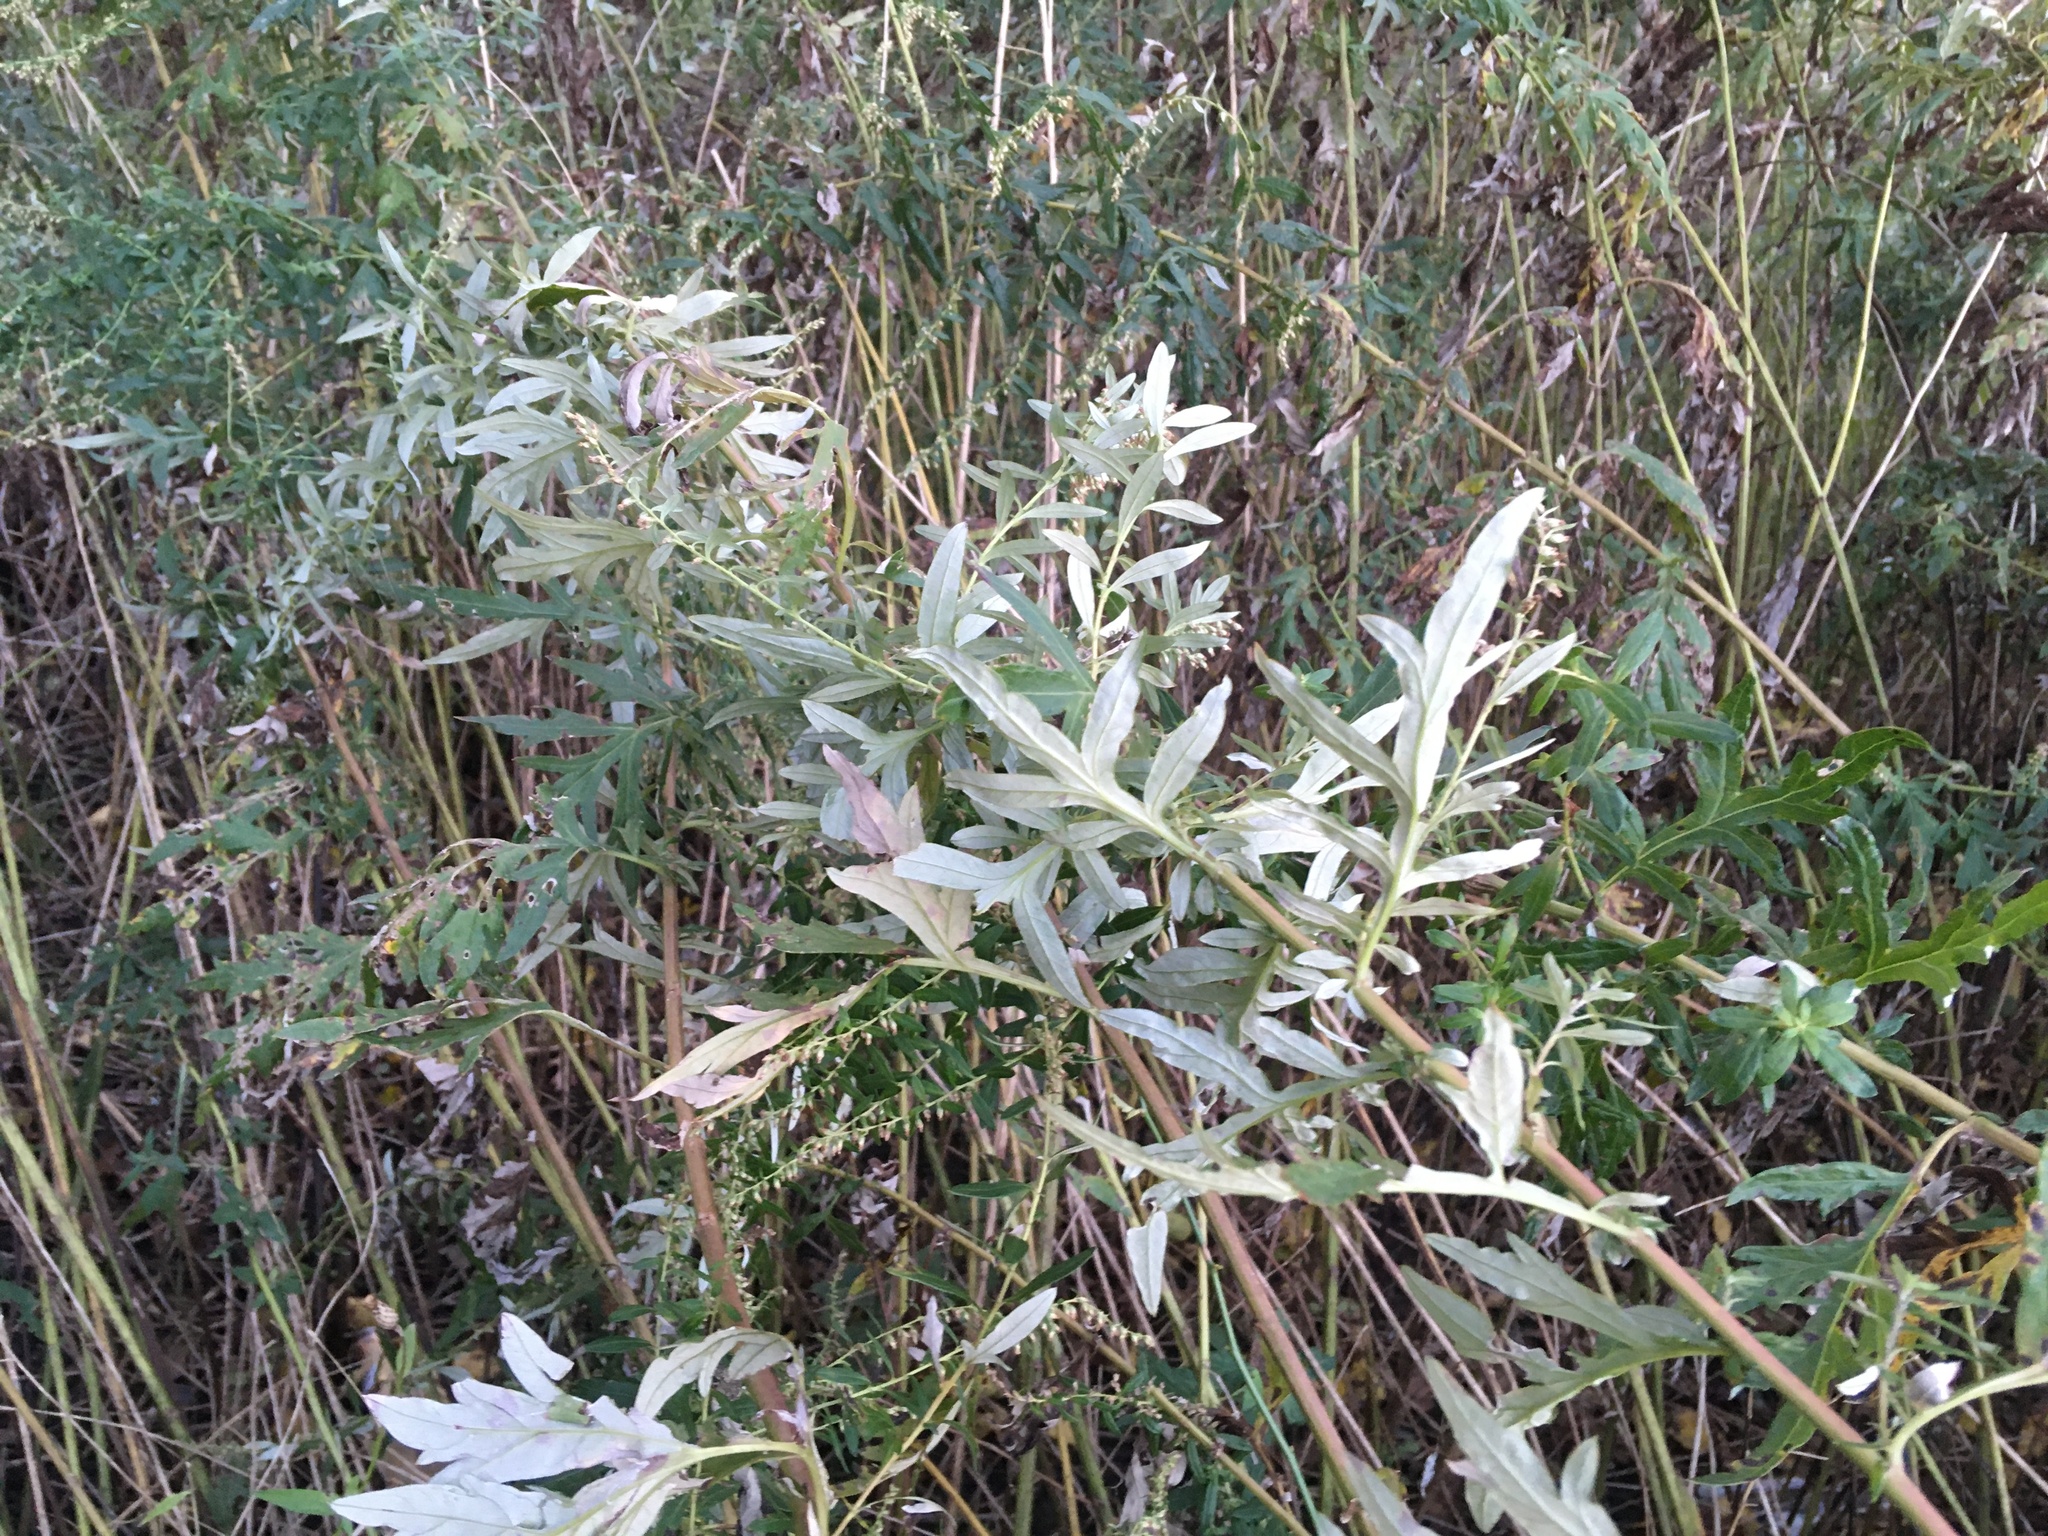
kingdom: Plantae
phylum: Tracheophyta
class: Magnoliopsida
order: Asterales
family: Asteraceae
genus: Artemisia
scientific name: Artemisia vulgaris
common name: Mugwort
